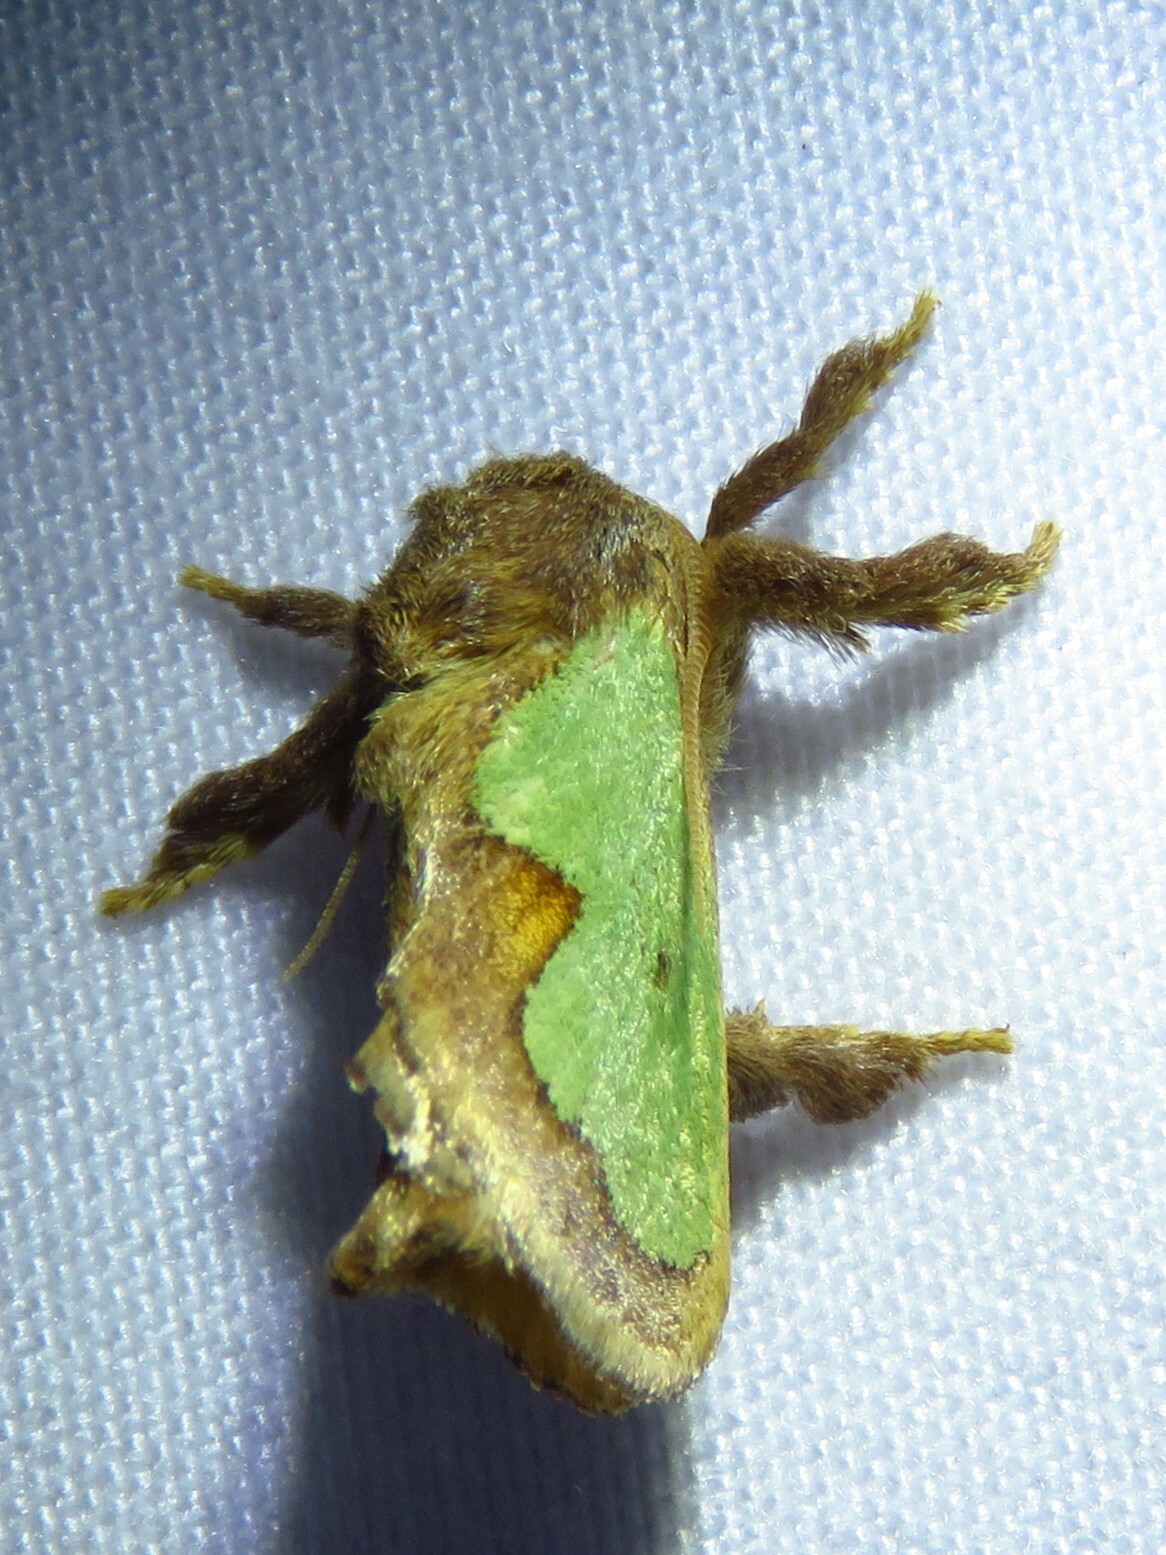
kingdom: Animalia
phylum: Arthropoda
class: Insecta
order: Lepidoptera
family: Limacodidae
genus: Euclea
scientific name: Euclea incisa
